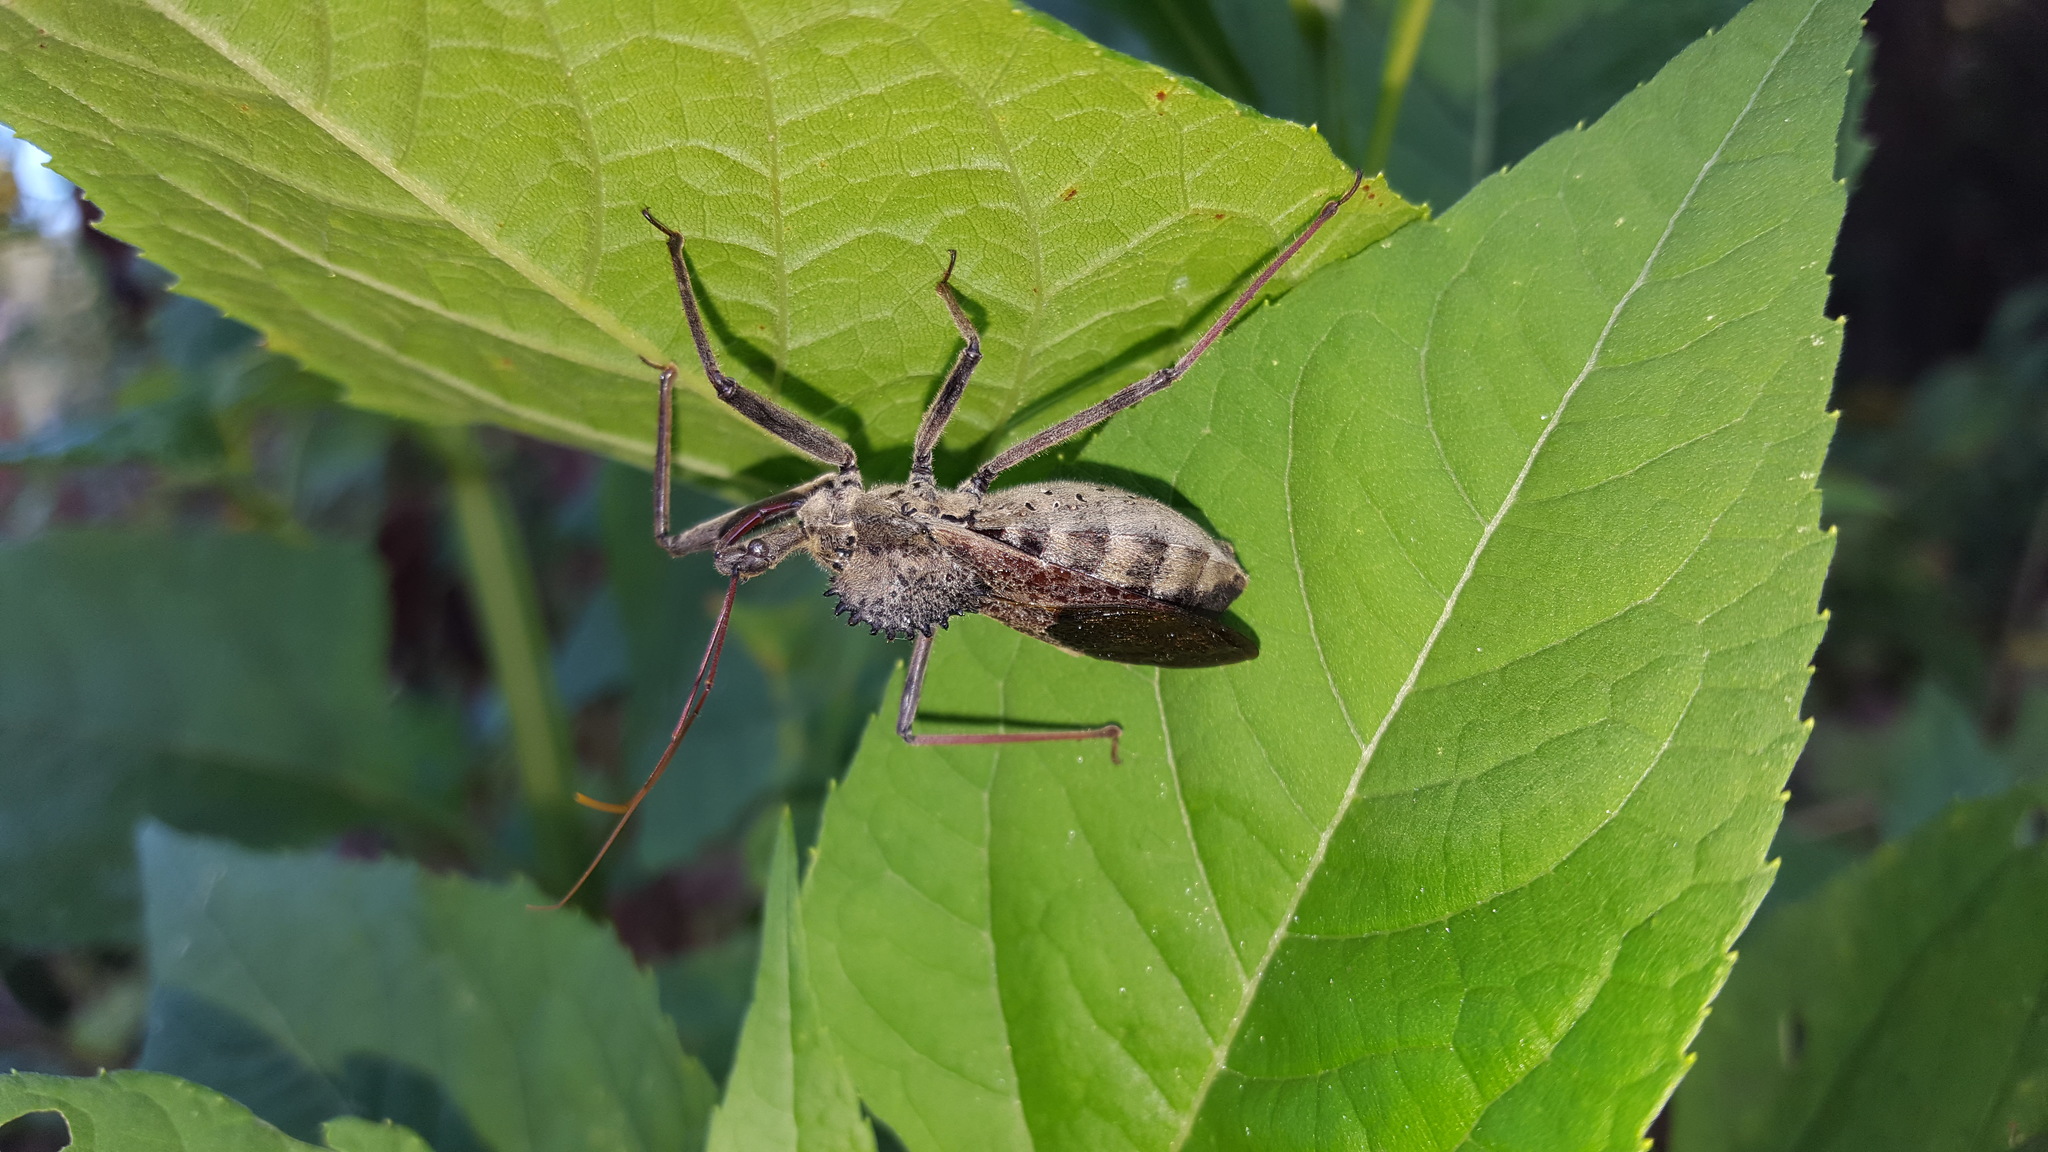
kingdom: Animalia
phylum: Arthropoda
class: Insecta
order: Hemiptera
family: Reduviidae
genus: Arilus
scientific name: Arilus cristatus
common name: North american wheel bug
